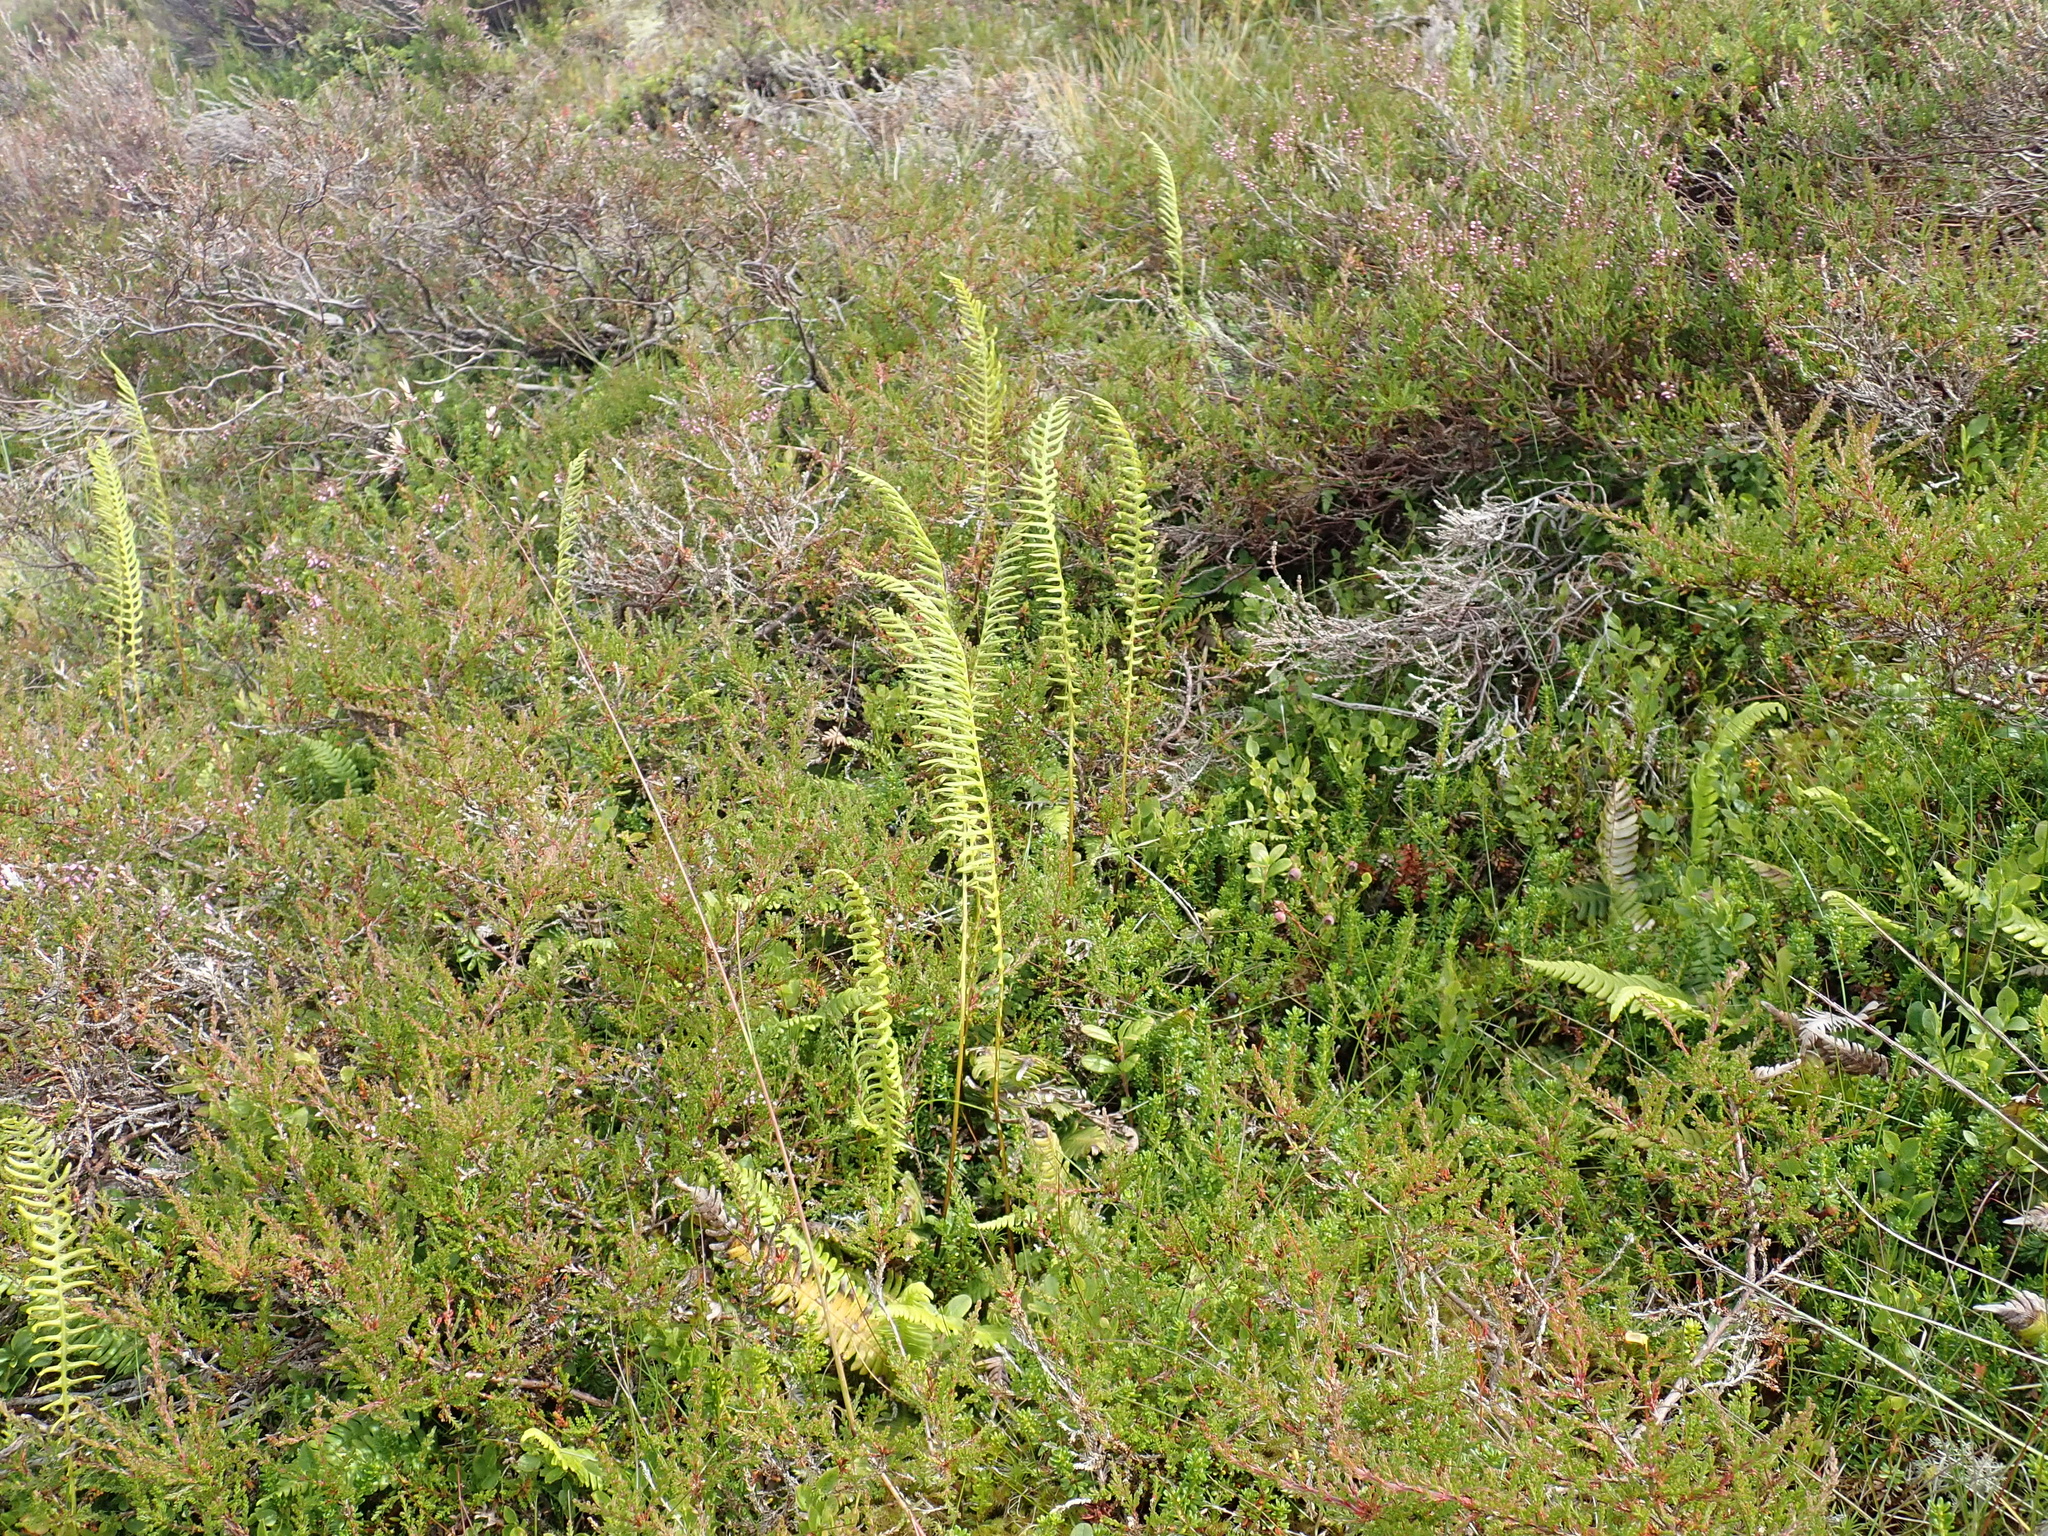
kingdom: Plantae
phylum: Tracheophyta
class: Polypodiopsida
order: Polypodiales
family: Blechnaceae
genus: Struthiopteris
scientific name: Struthiopteris spicant
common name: Deer fern
